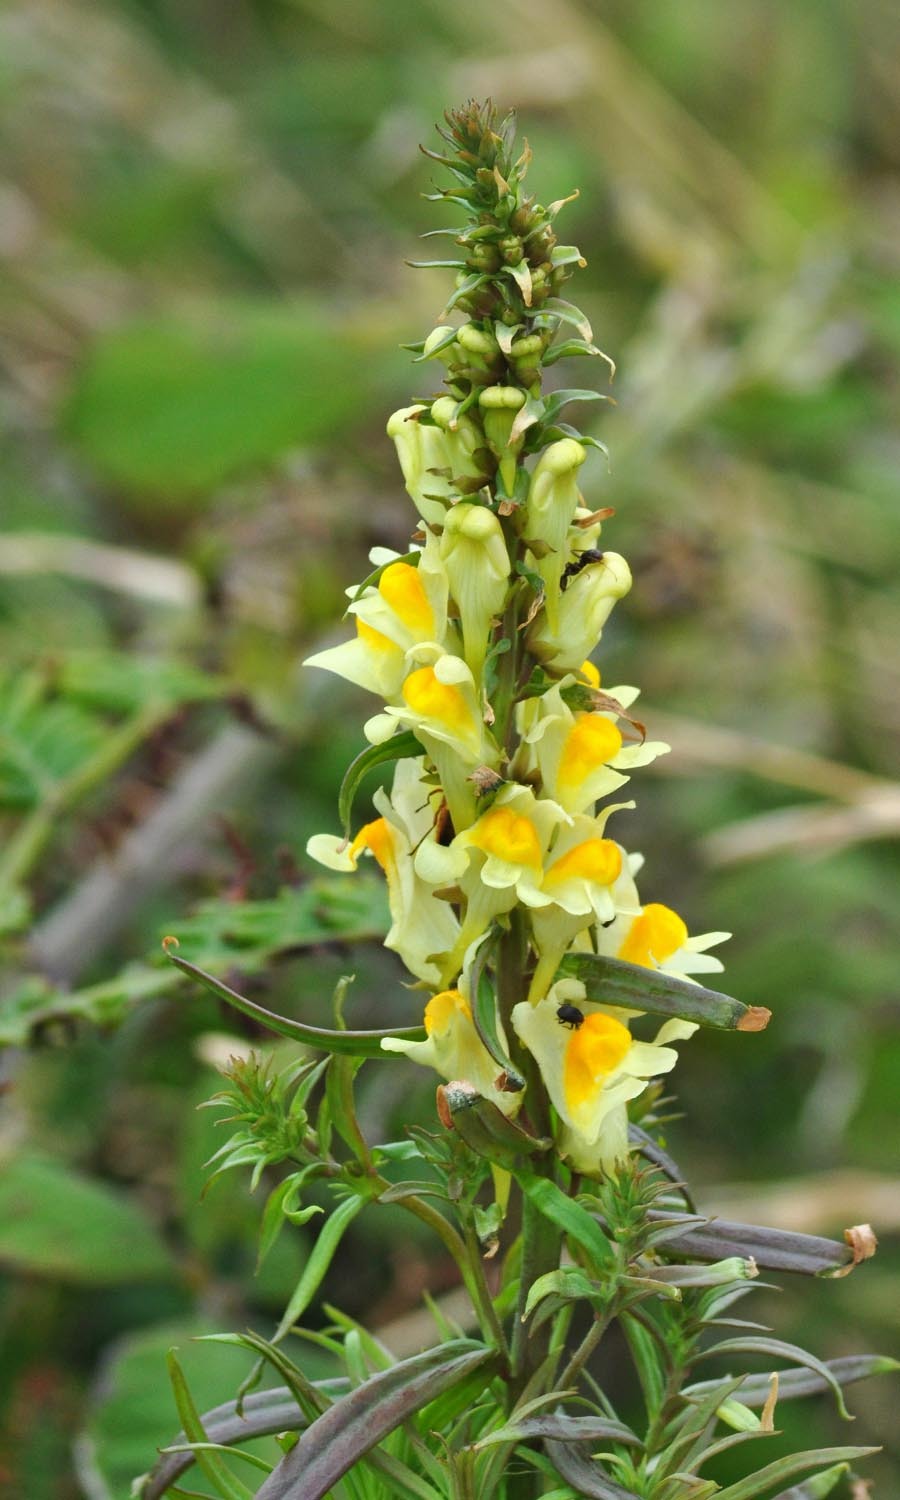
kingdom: Plantae
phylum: Tracheophyta
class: Magnoliopsida
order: Lamiales
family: Plantaginaceae
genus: Linaria
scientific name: Linaria vulgaris
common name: Butter and eggs
